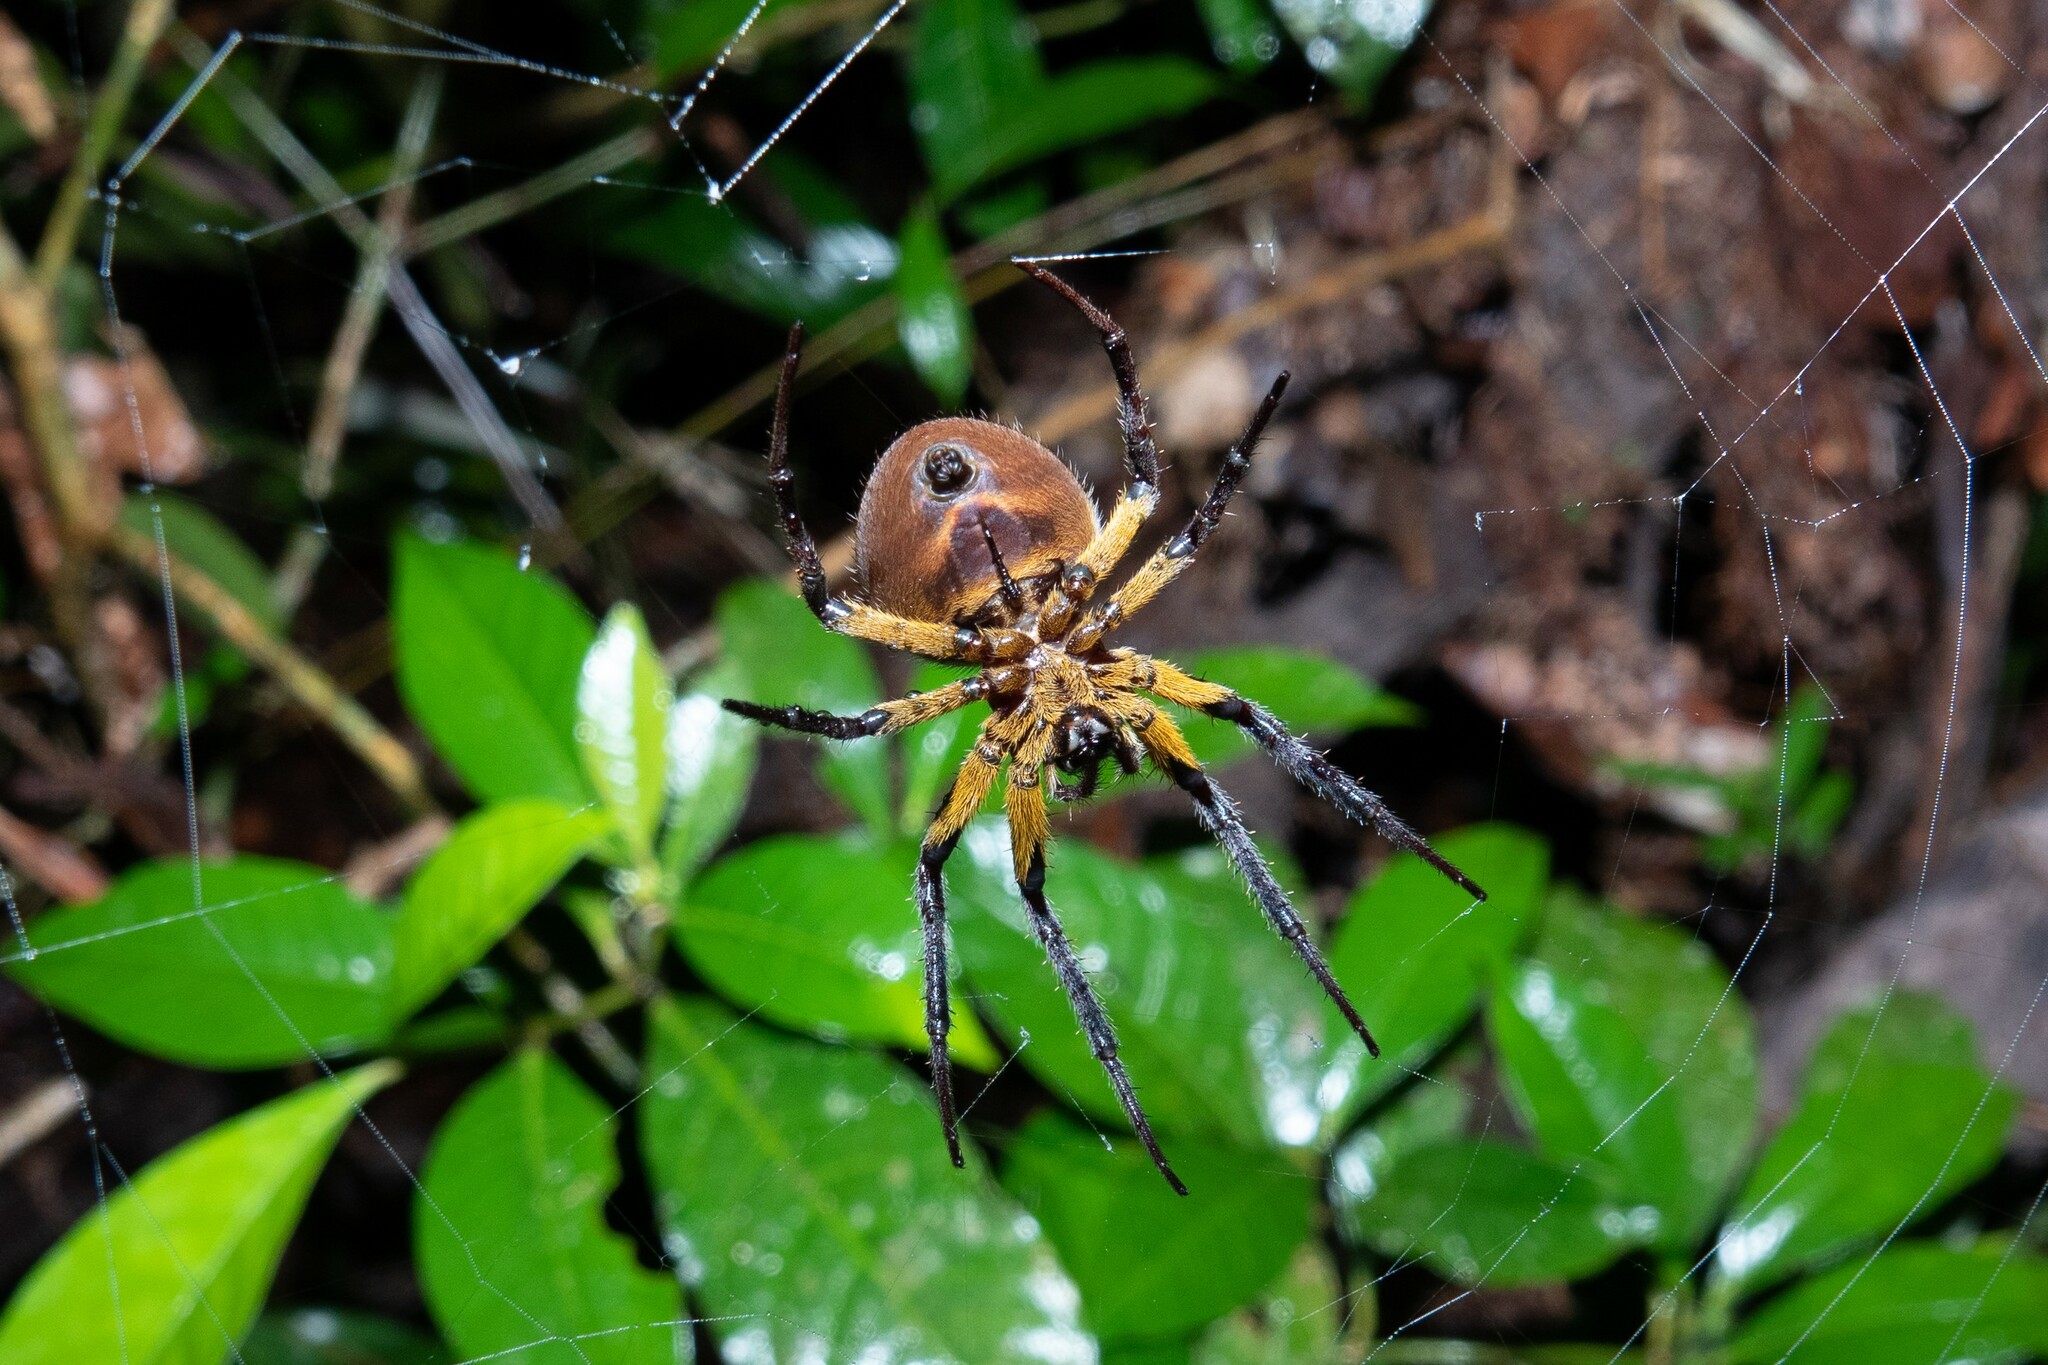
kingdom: Animalia
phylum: Arthropoda
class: Arachnida
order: Araneae
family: Araneidae
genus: Eriophora
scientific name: Eriophora fuliginea
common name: Orb weavers
